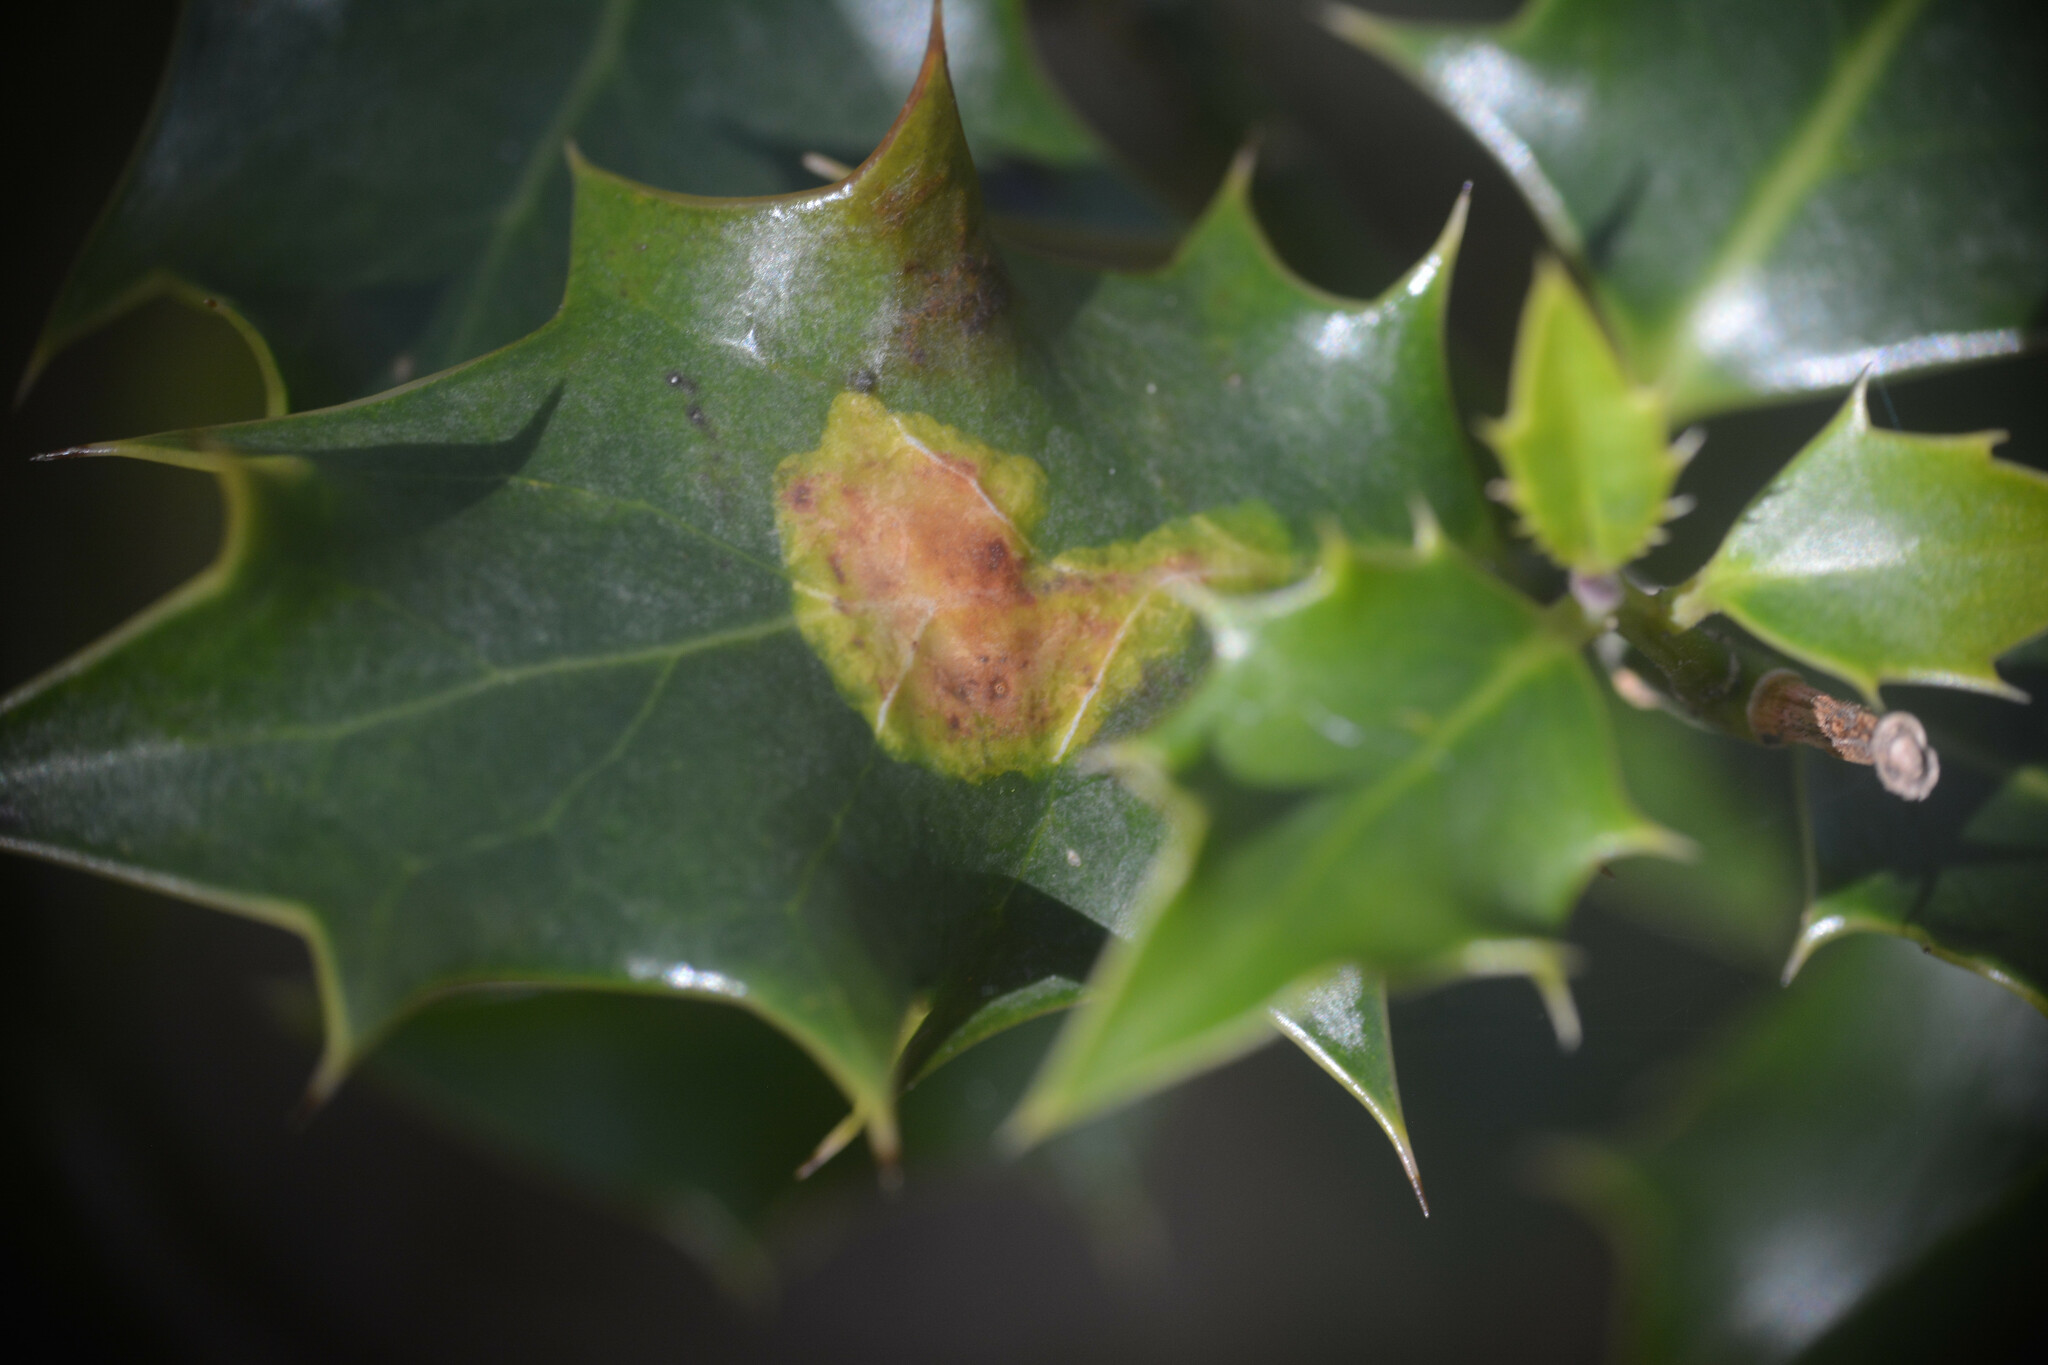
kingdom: Animalia
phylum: Arthropoda
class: Insecta
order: Diptera
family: Agromyzidae
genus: Phytomyza
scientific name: Phytomyza ilicis
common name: Holly leafminer
